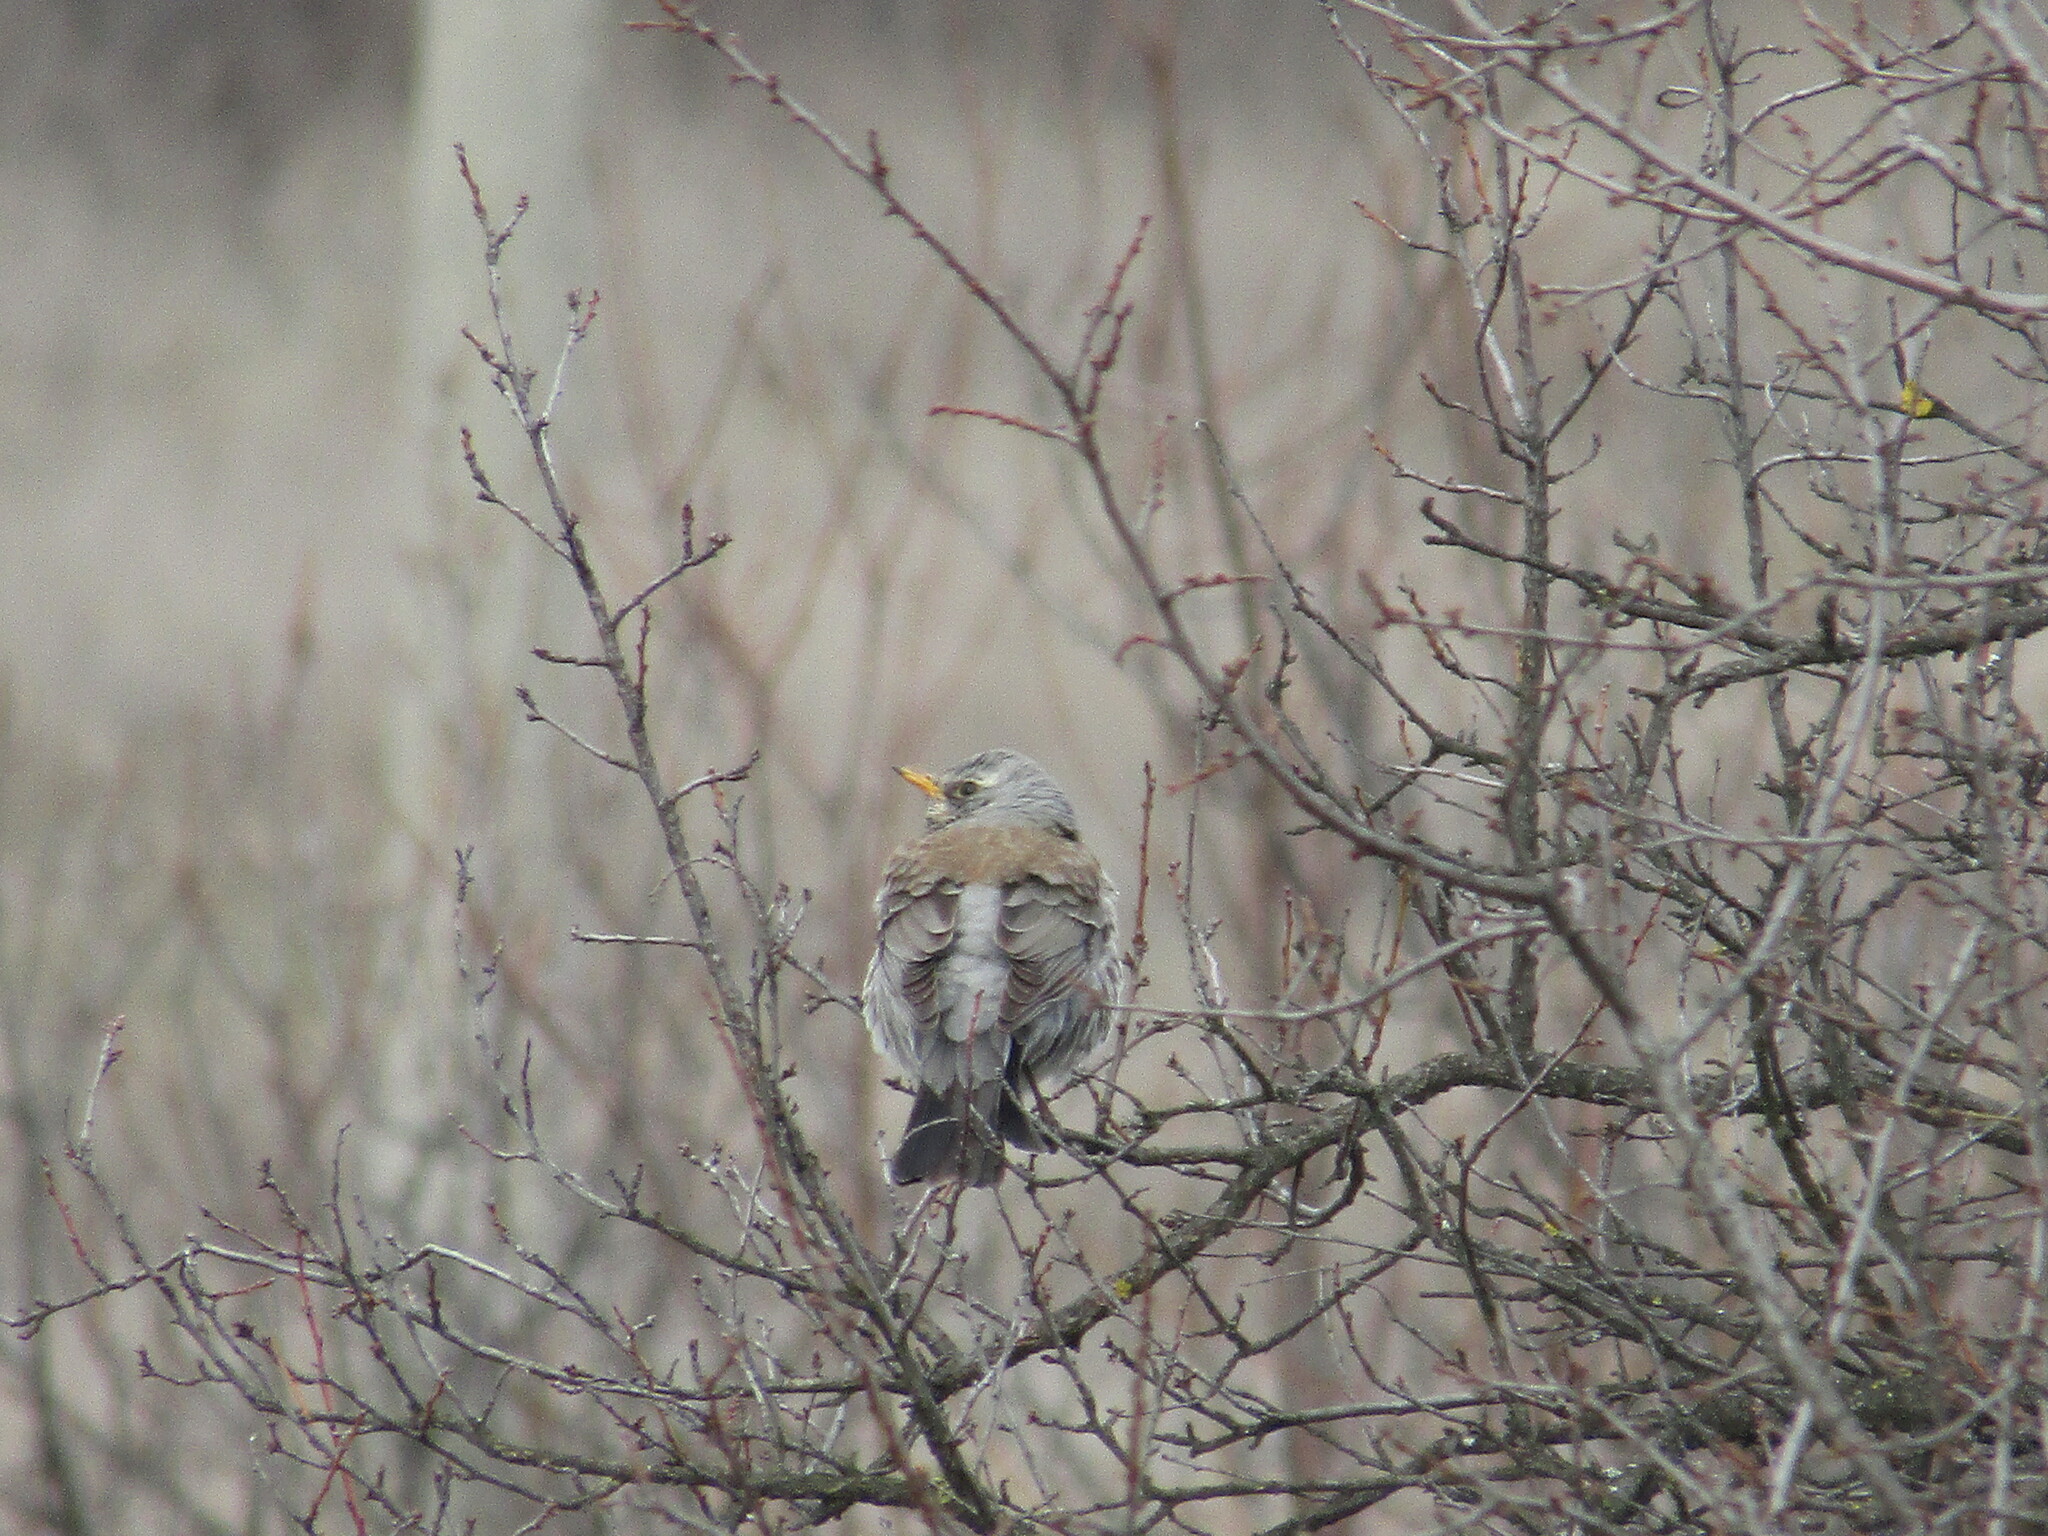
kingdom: Animalia
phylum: Chordata
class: Aves
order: Passeriformes
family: Turdidae
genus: Turdus
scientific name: Turdus pilaris
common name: Fieldfare
